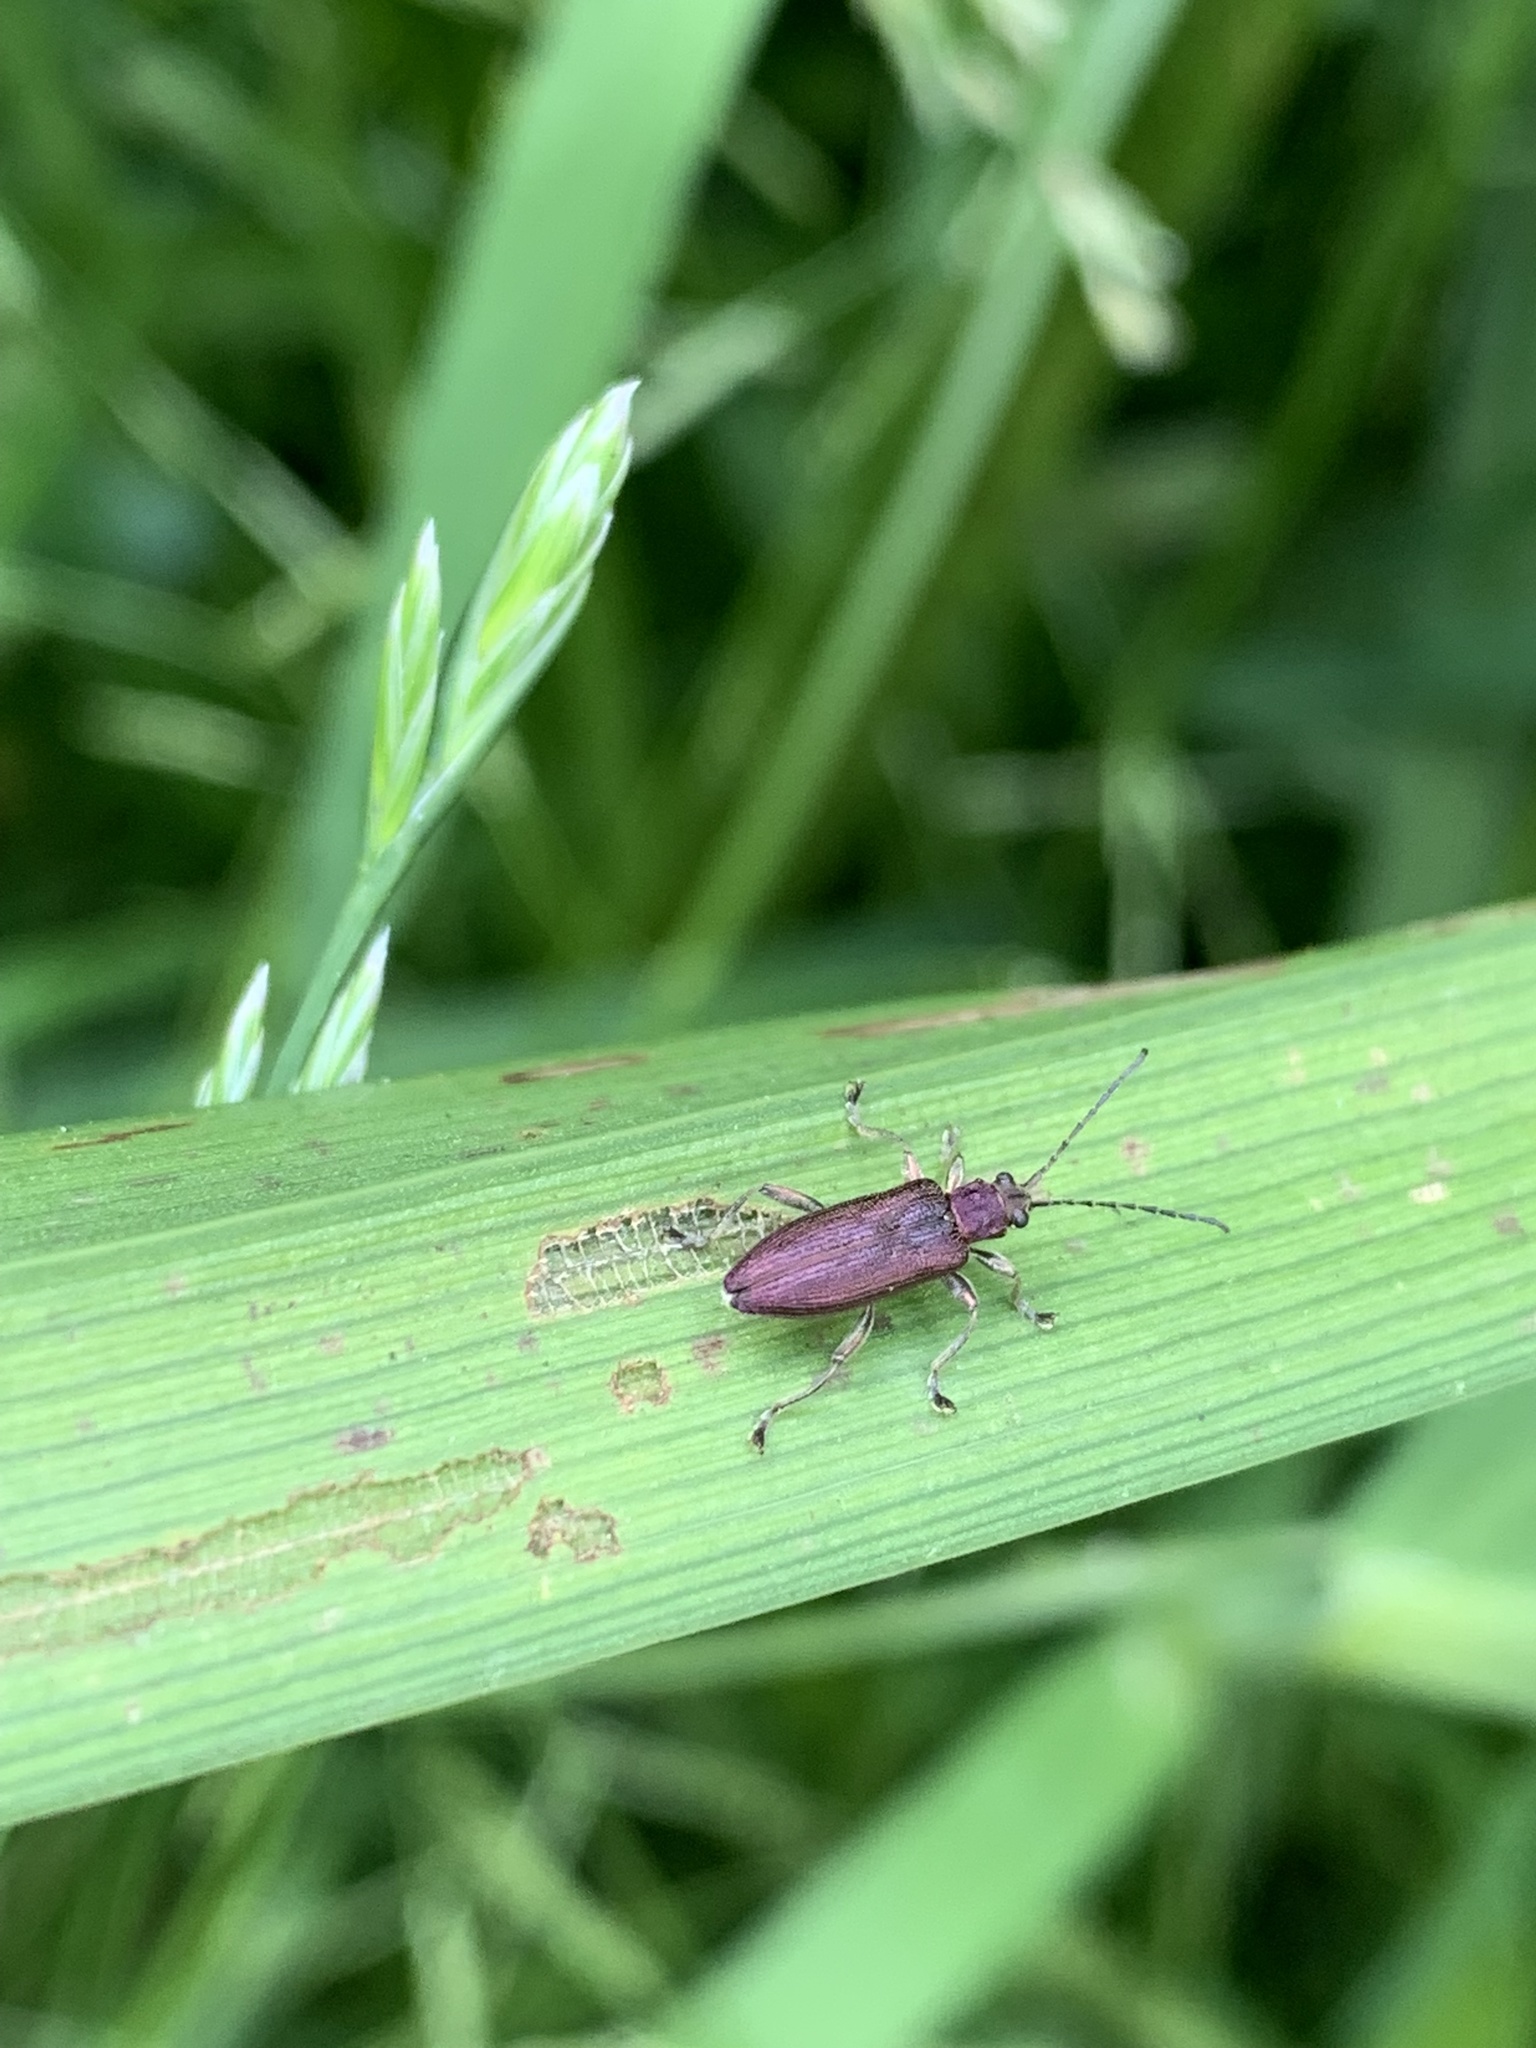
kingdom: Animalia
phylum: Arthropoda
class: Insecta
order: Coleoptera
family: Chrysomelidae
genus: Donacia
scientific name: Donacia simplex
